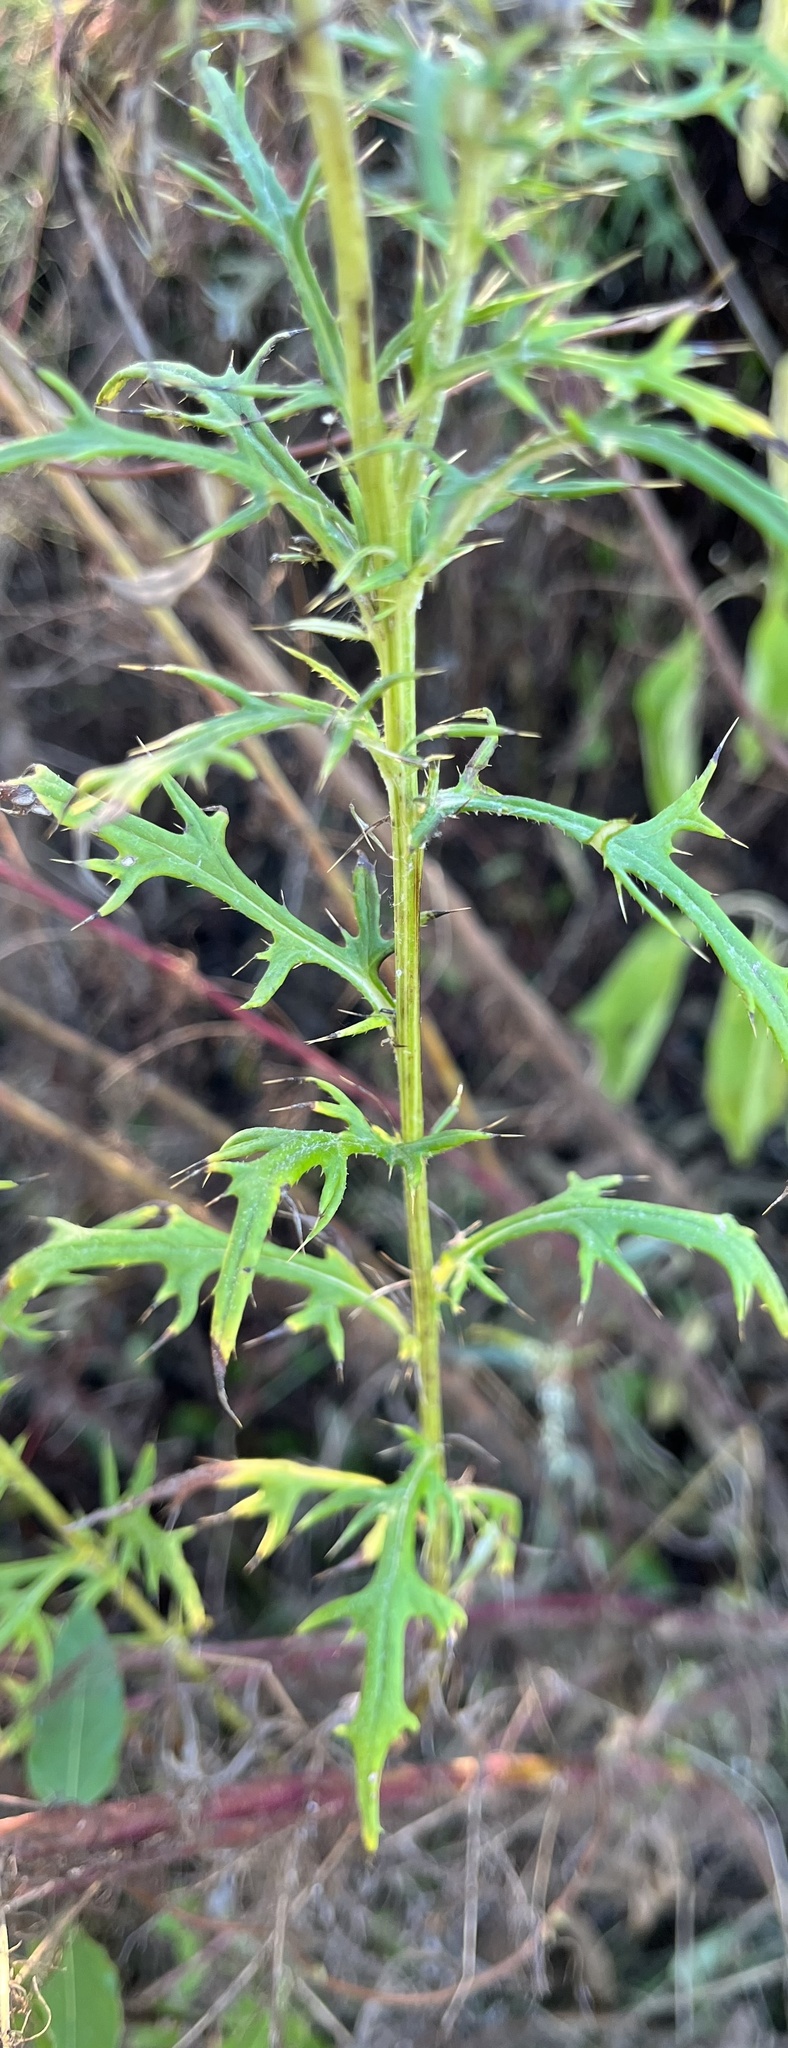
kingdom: Plantae
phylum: Tracheophyta
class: Magnoliopsida
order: Asterales
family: Asteraceae
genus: Cirsium
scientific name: Cirsium discolor
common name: Field thistle
